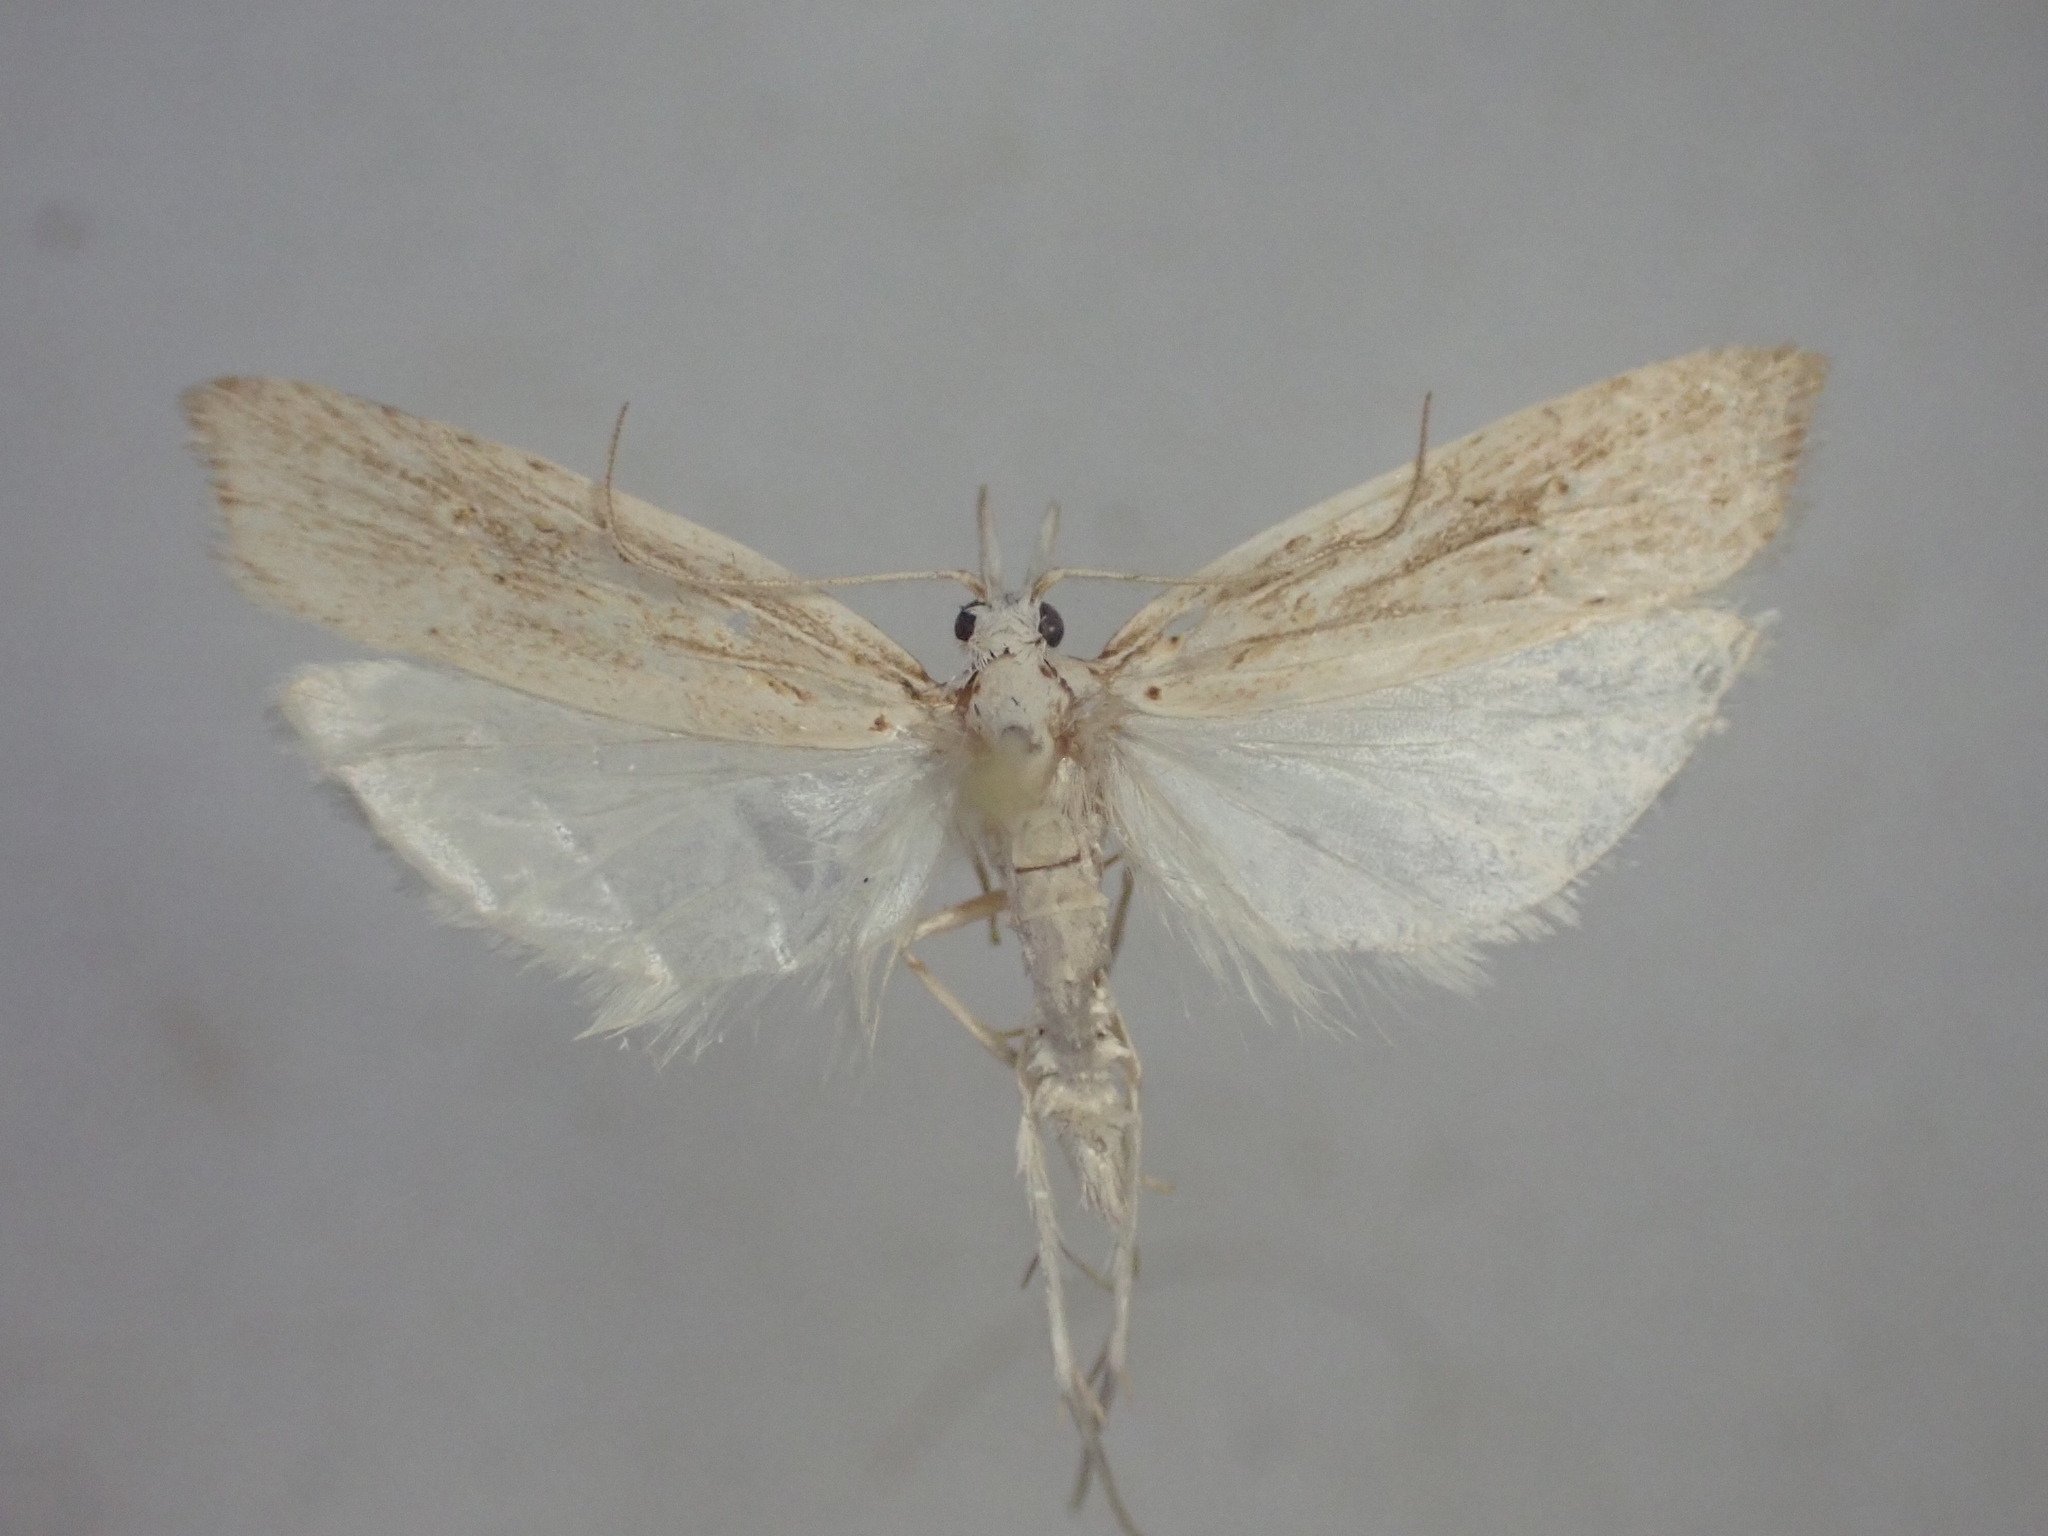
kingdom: Animalia
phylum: Arthropoda
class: Insecta
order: Lepidoptera
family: Carposinidae
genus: Carposina
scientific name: Carposina Heterocrossa exochana
